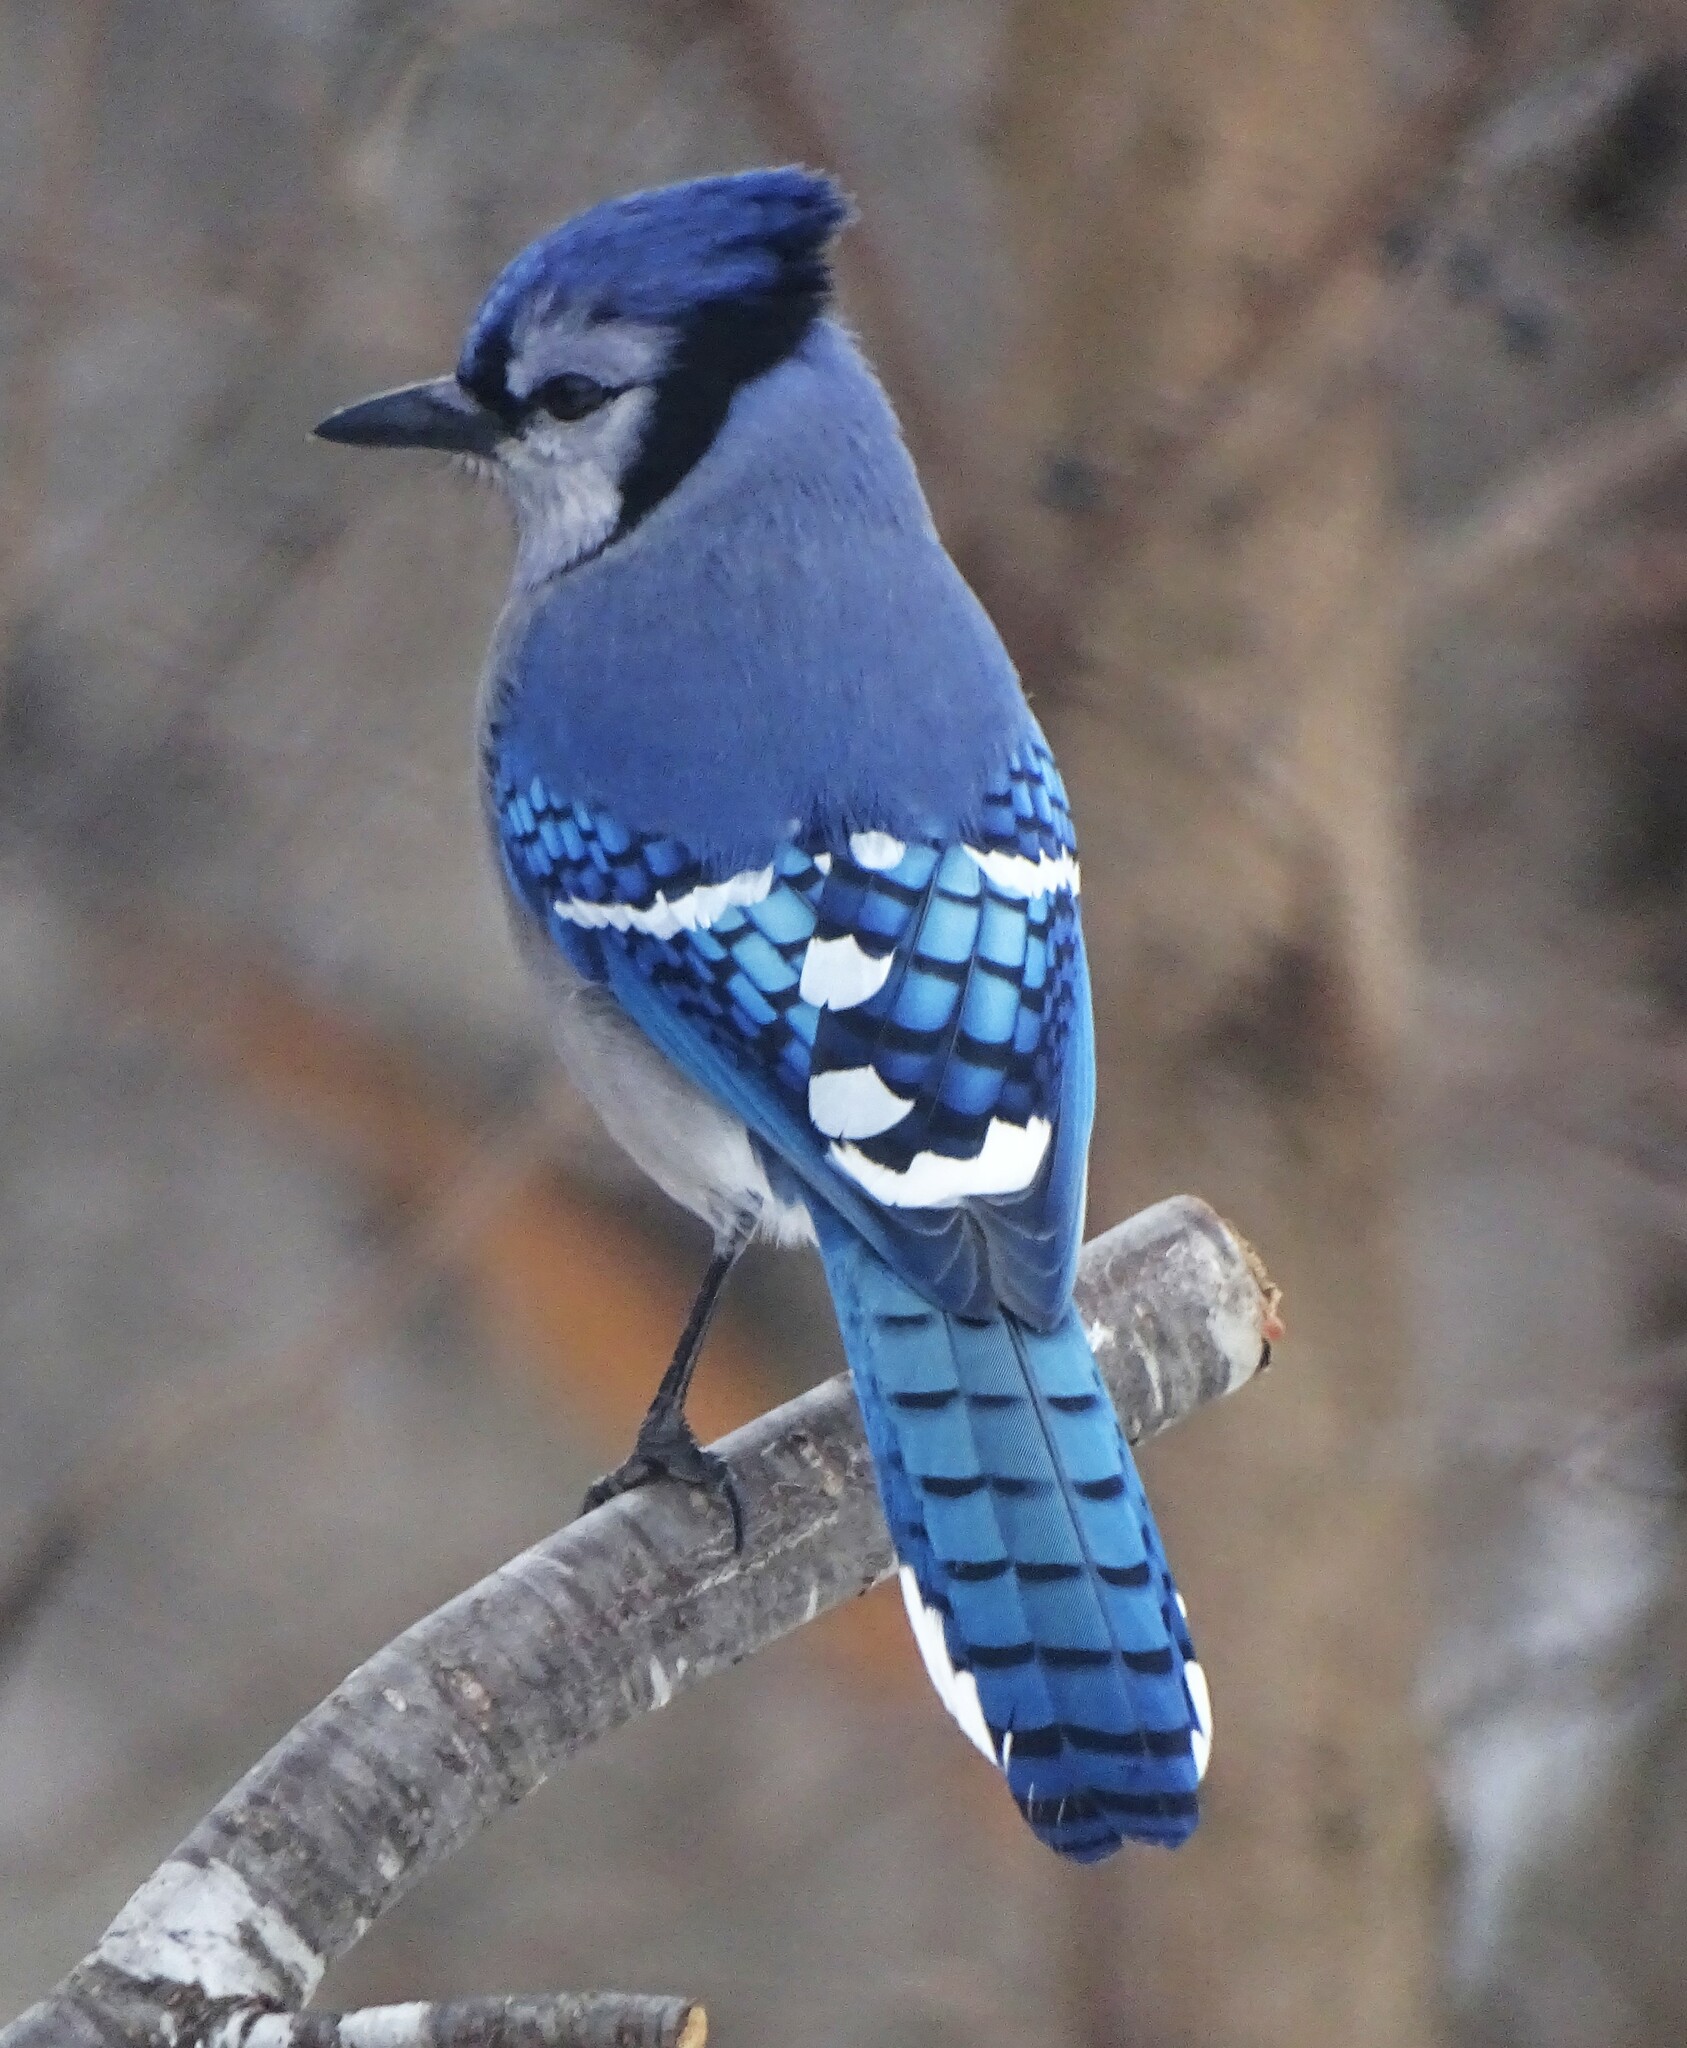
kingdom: Animalia
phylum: Chordata
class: Aves
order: Passeriformes
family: Corvidae
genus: Cyanocitta
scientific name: Cyanocitta cristata
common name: Blue jay
